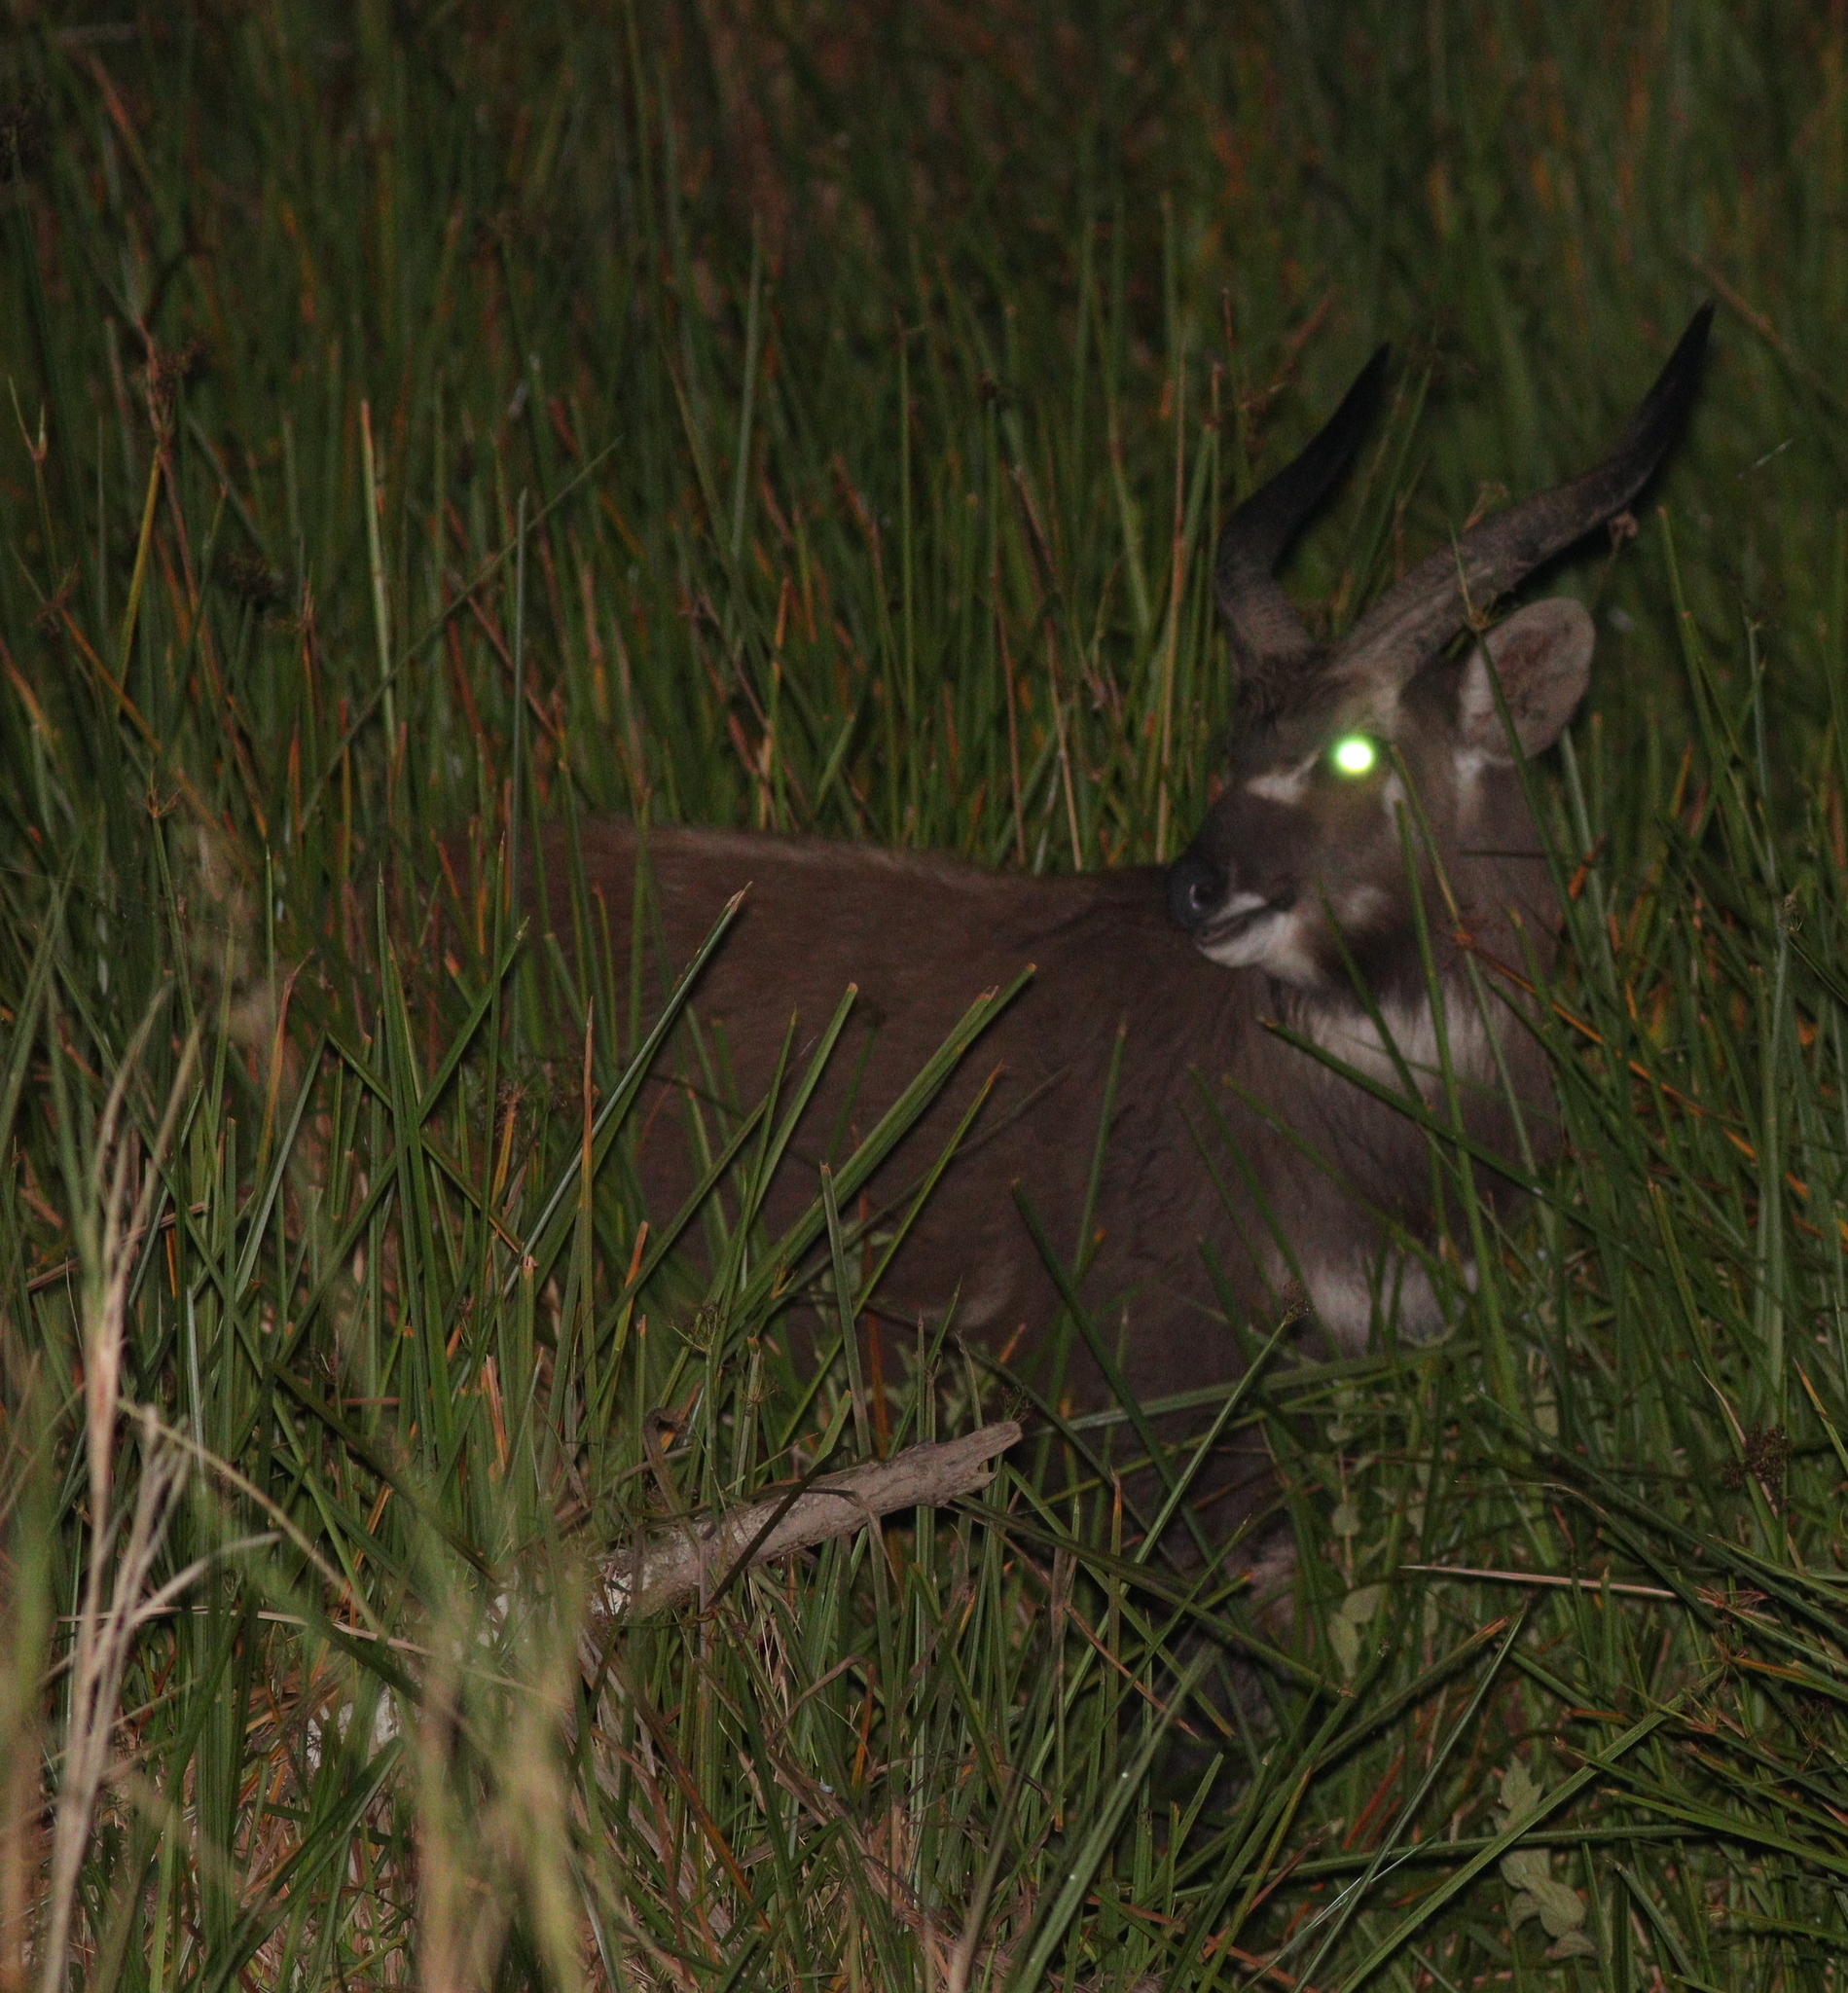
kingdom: Animalia
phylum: Chordata
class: Mammalia
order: Artiodactyla
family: Bovidae
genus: Tragelaphus
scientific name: Tragelaphus spekii
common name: Sitatunga
